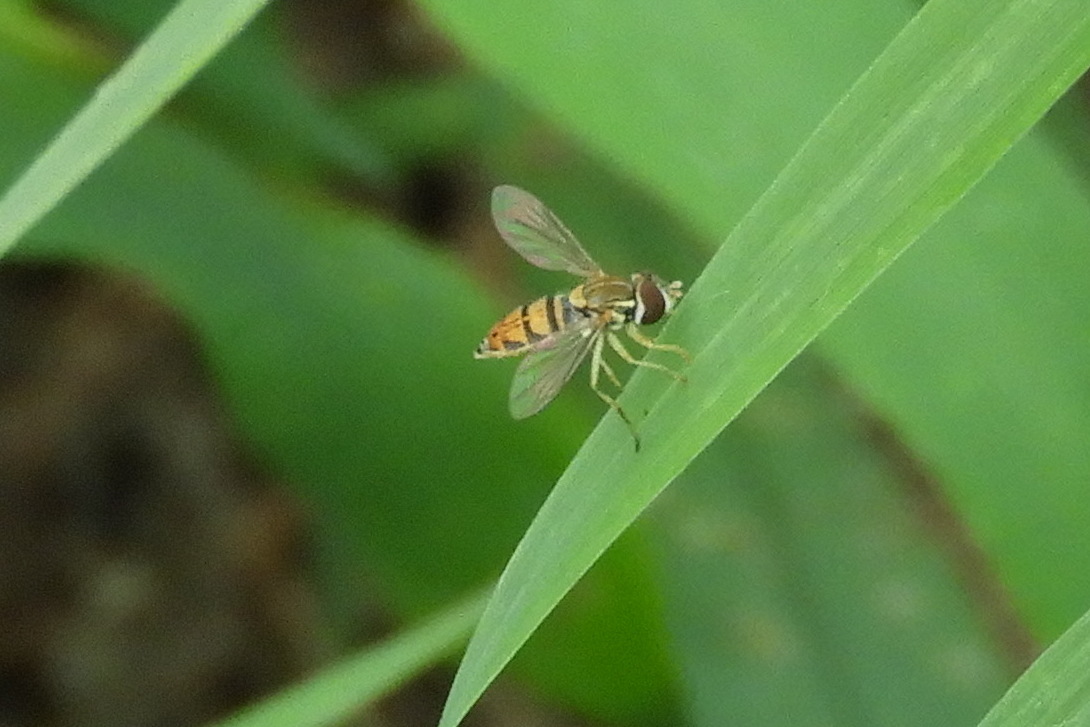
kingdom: Animalia
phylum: Arthropoda
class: Insecta
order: Diptera
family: Syrphidae
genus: Toxomerus
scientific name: Toxomerus marginatus
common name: Syrphid fly
